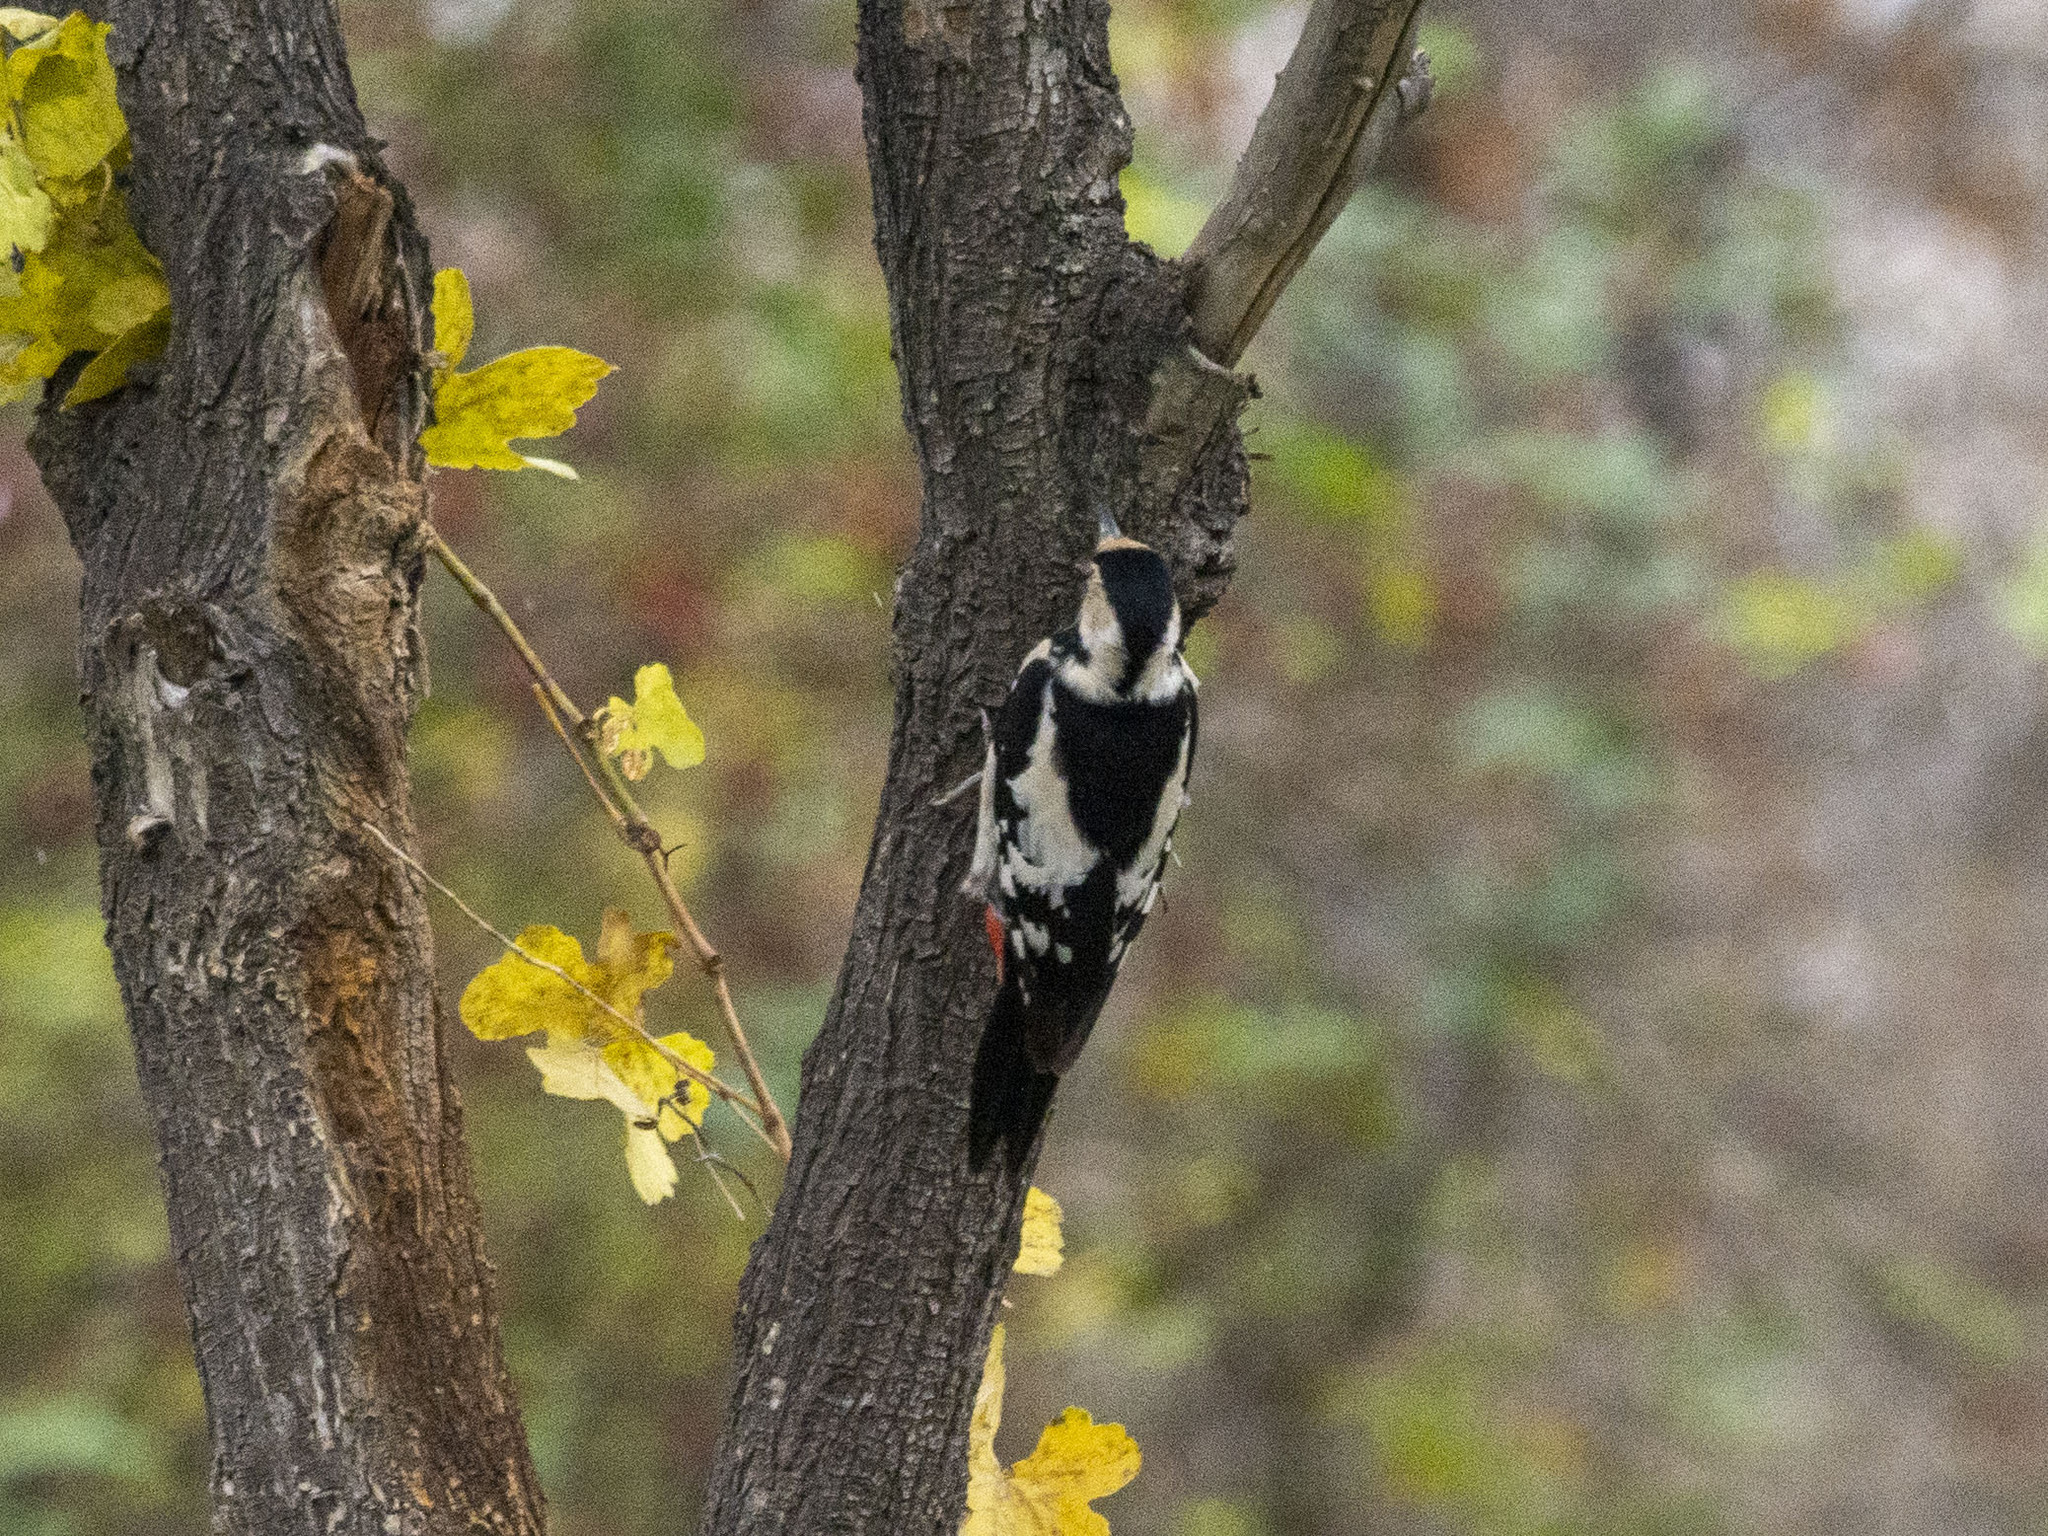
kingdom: Animalia
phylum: Chordata
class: Aves
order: Piciformes
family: Picidae
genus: Dendrocopos
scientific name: Dendrocopos syriacus
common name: Syrian woodpecker
